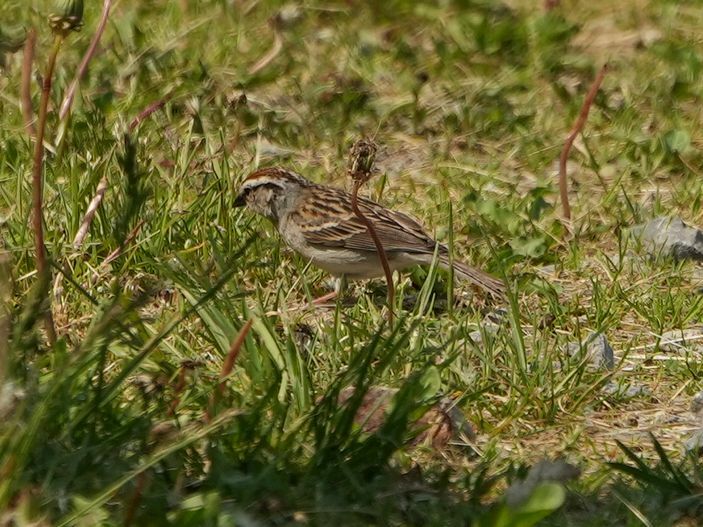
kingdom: Animalia
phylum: Chordata
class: Aves
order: Passeriformes
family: Passerellidae
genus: Spizella
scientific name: Spizella passerina
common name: Chipping sparrow
